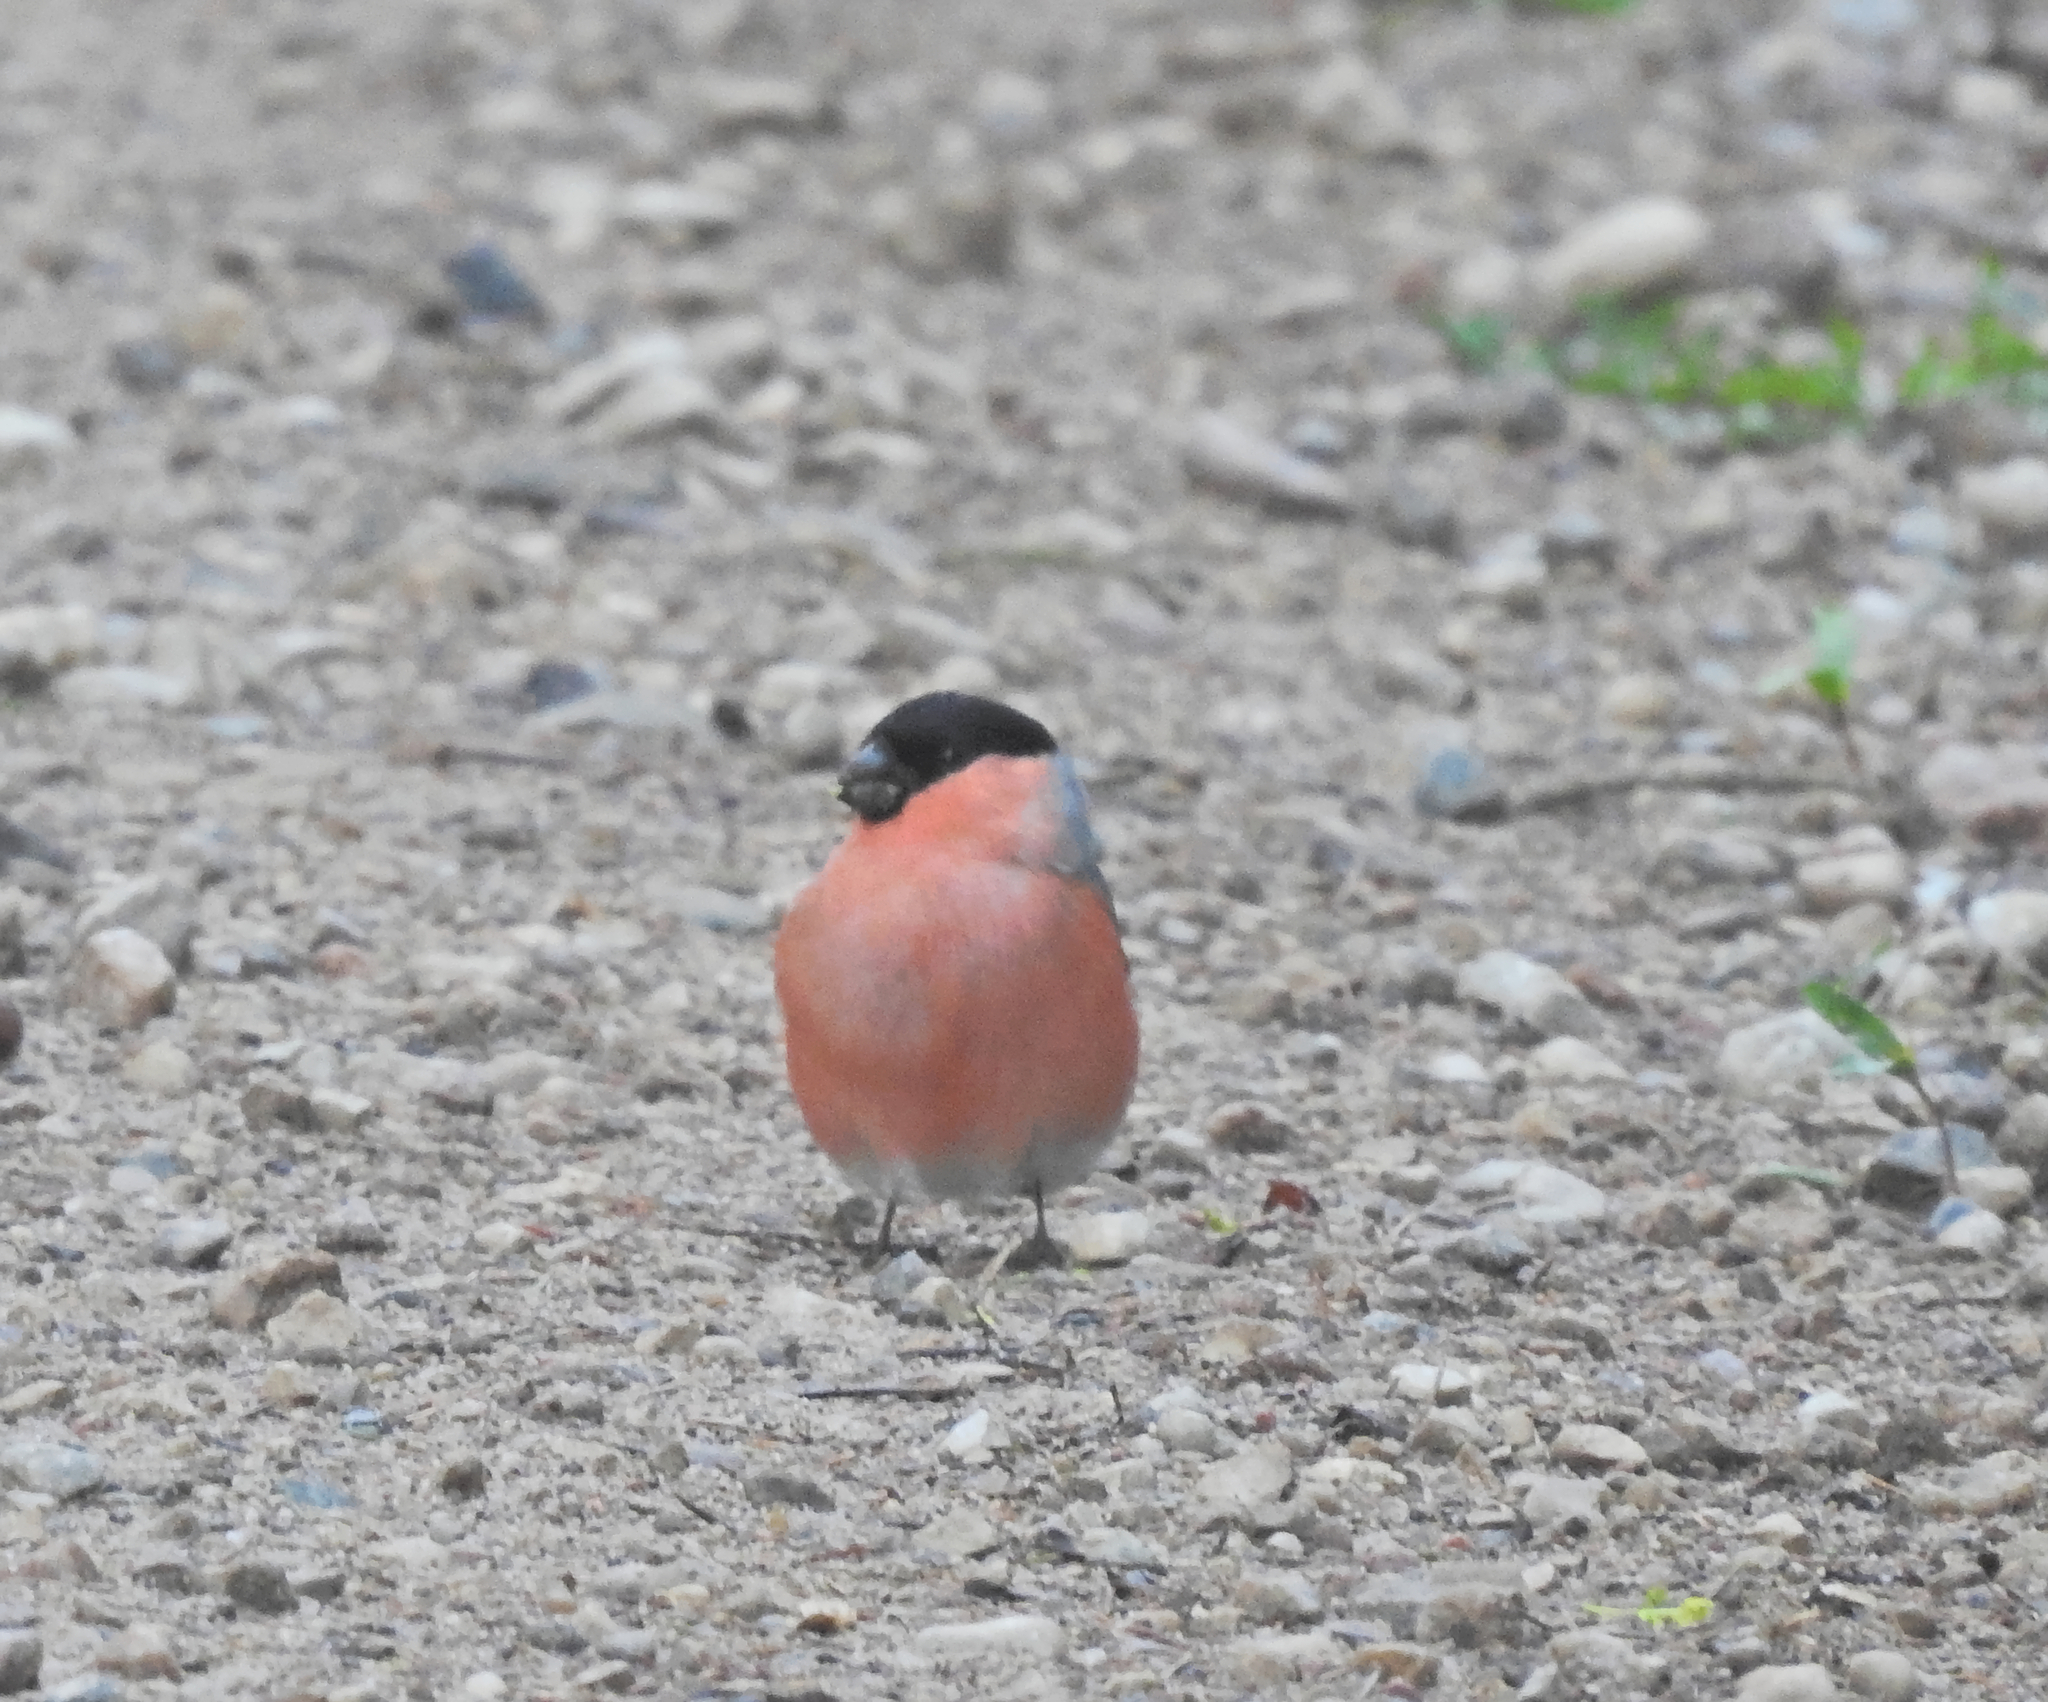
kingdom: Animalia
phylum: Chordata
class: Aves
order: Passeriformes
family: Fringillidae
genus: Pyrrhula
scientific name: Pyrrhula pyrrhula
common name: Eurasian bullfinch
